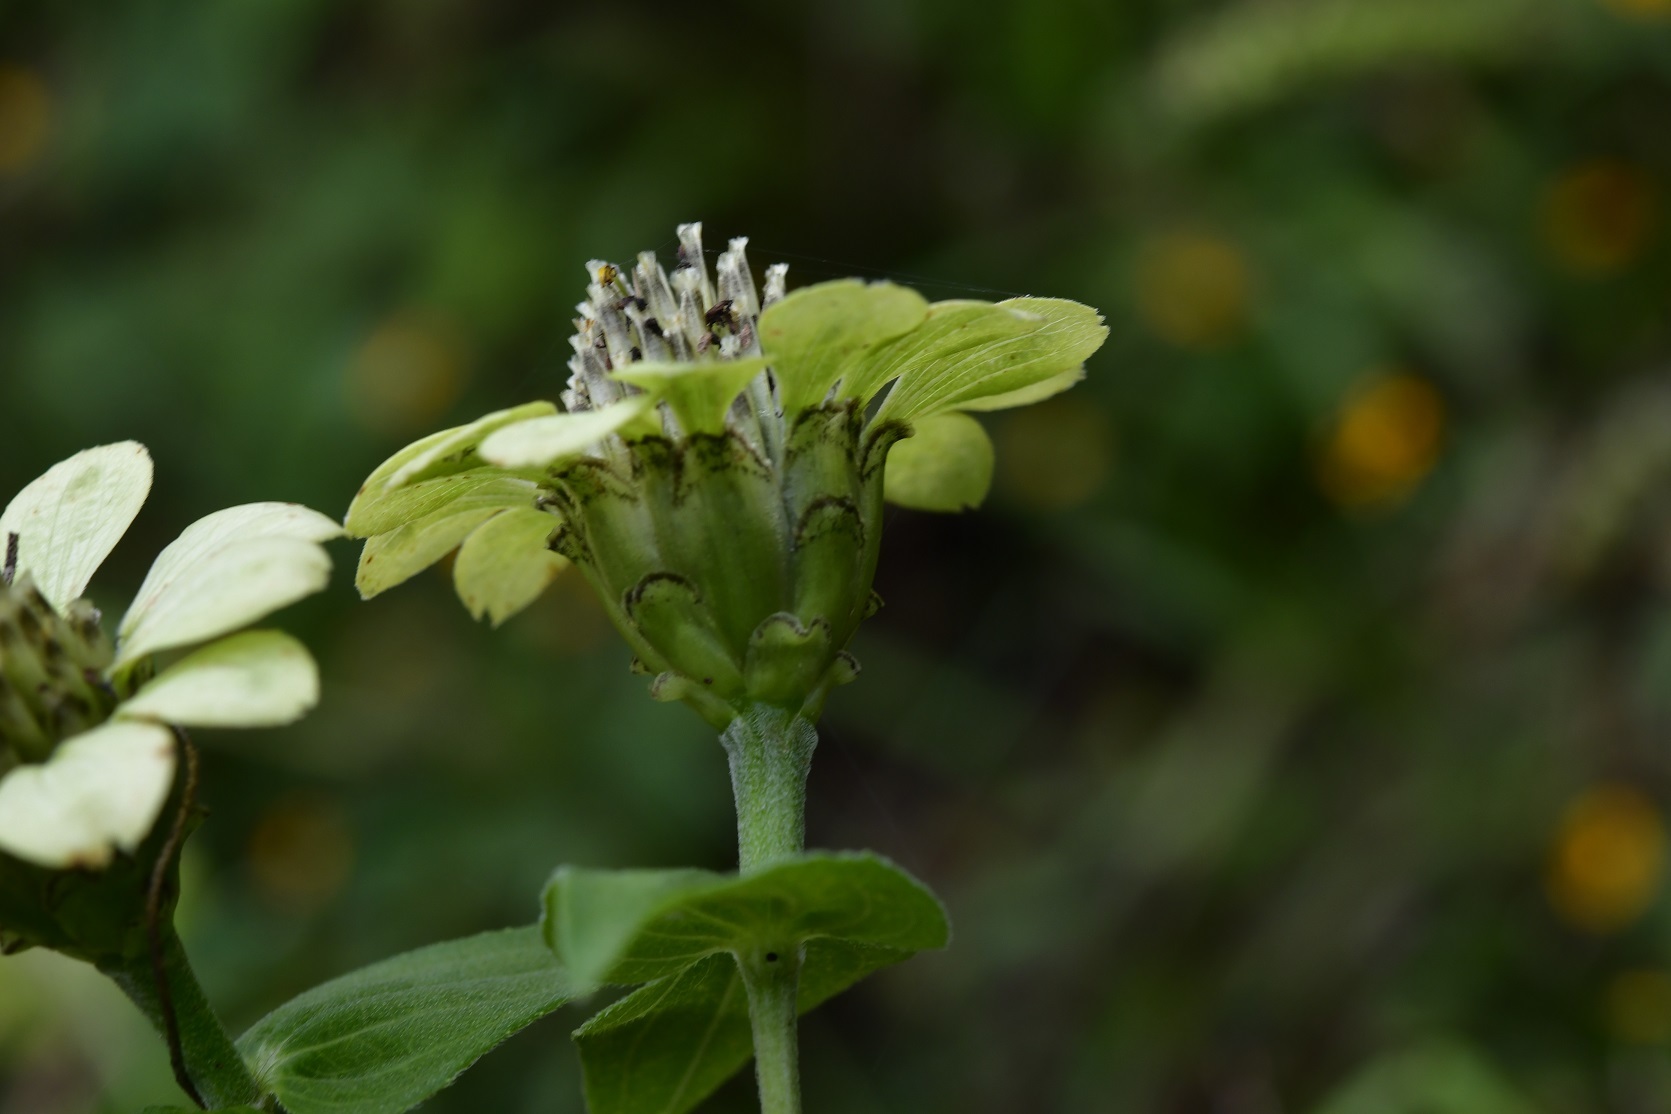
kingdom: Plantae
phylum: Tracheophyta
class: Magnoliopsida
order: Asterales
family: Asteraceae
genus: Zinnia
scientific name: Zinnia peruviana
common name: Peruvian zinnia
